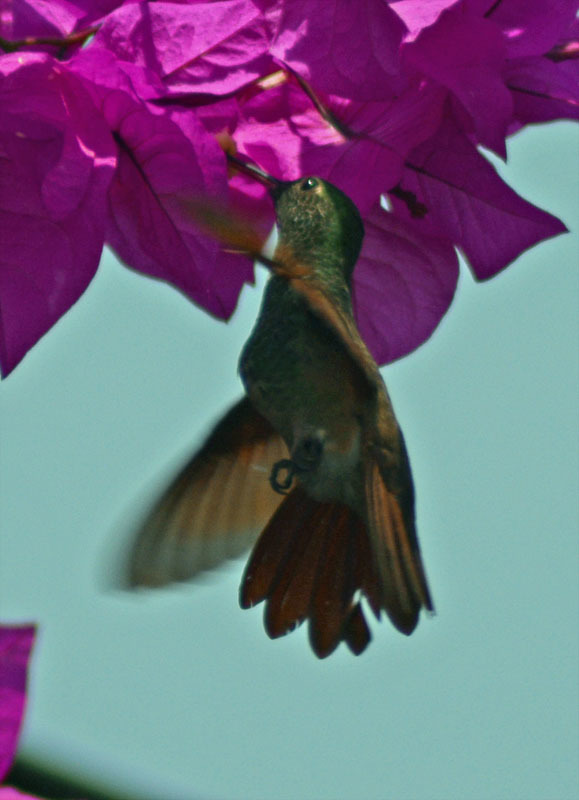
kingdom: Animalia
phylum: Chordata
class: Aves
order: Apodiformes
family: Trochilidae
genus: Saucerottia
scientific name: Saucerottia beryllina
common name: Berylline hummingbird
